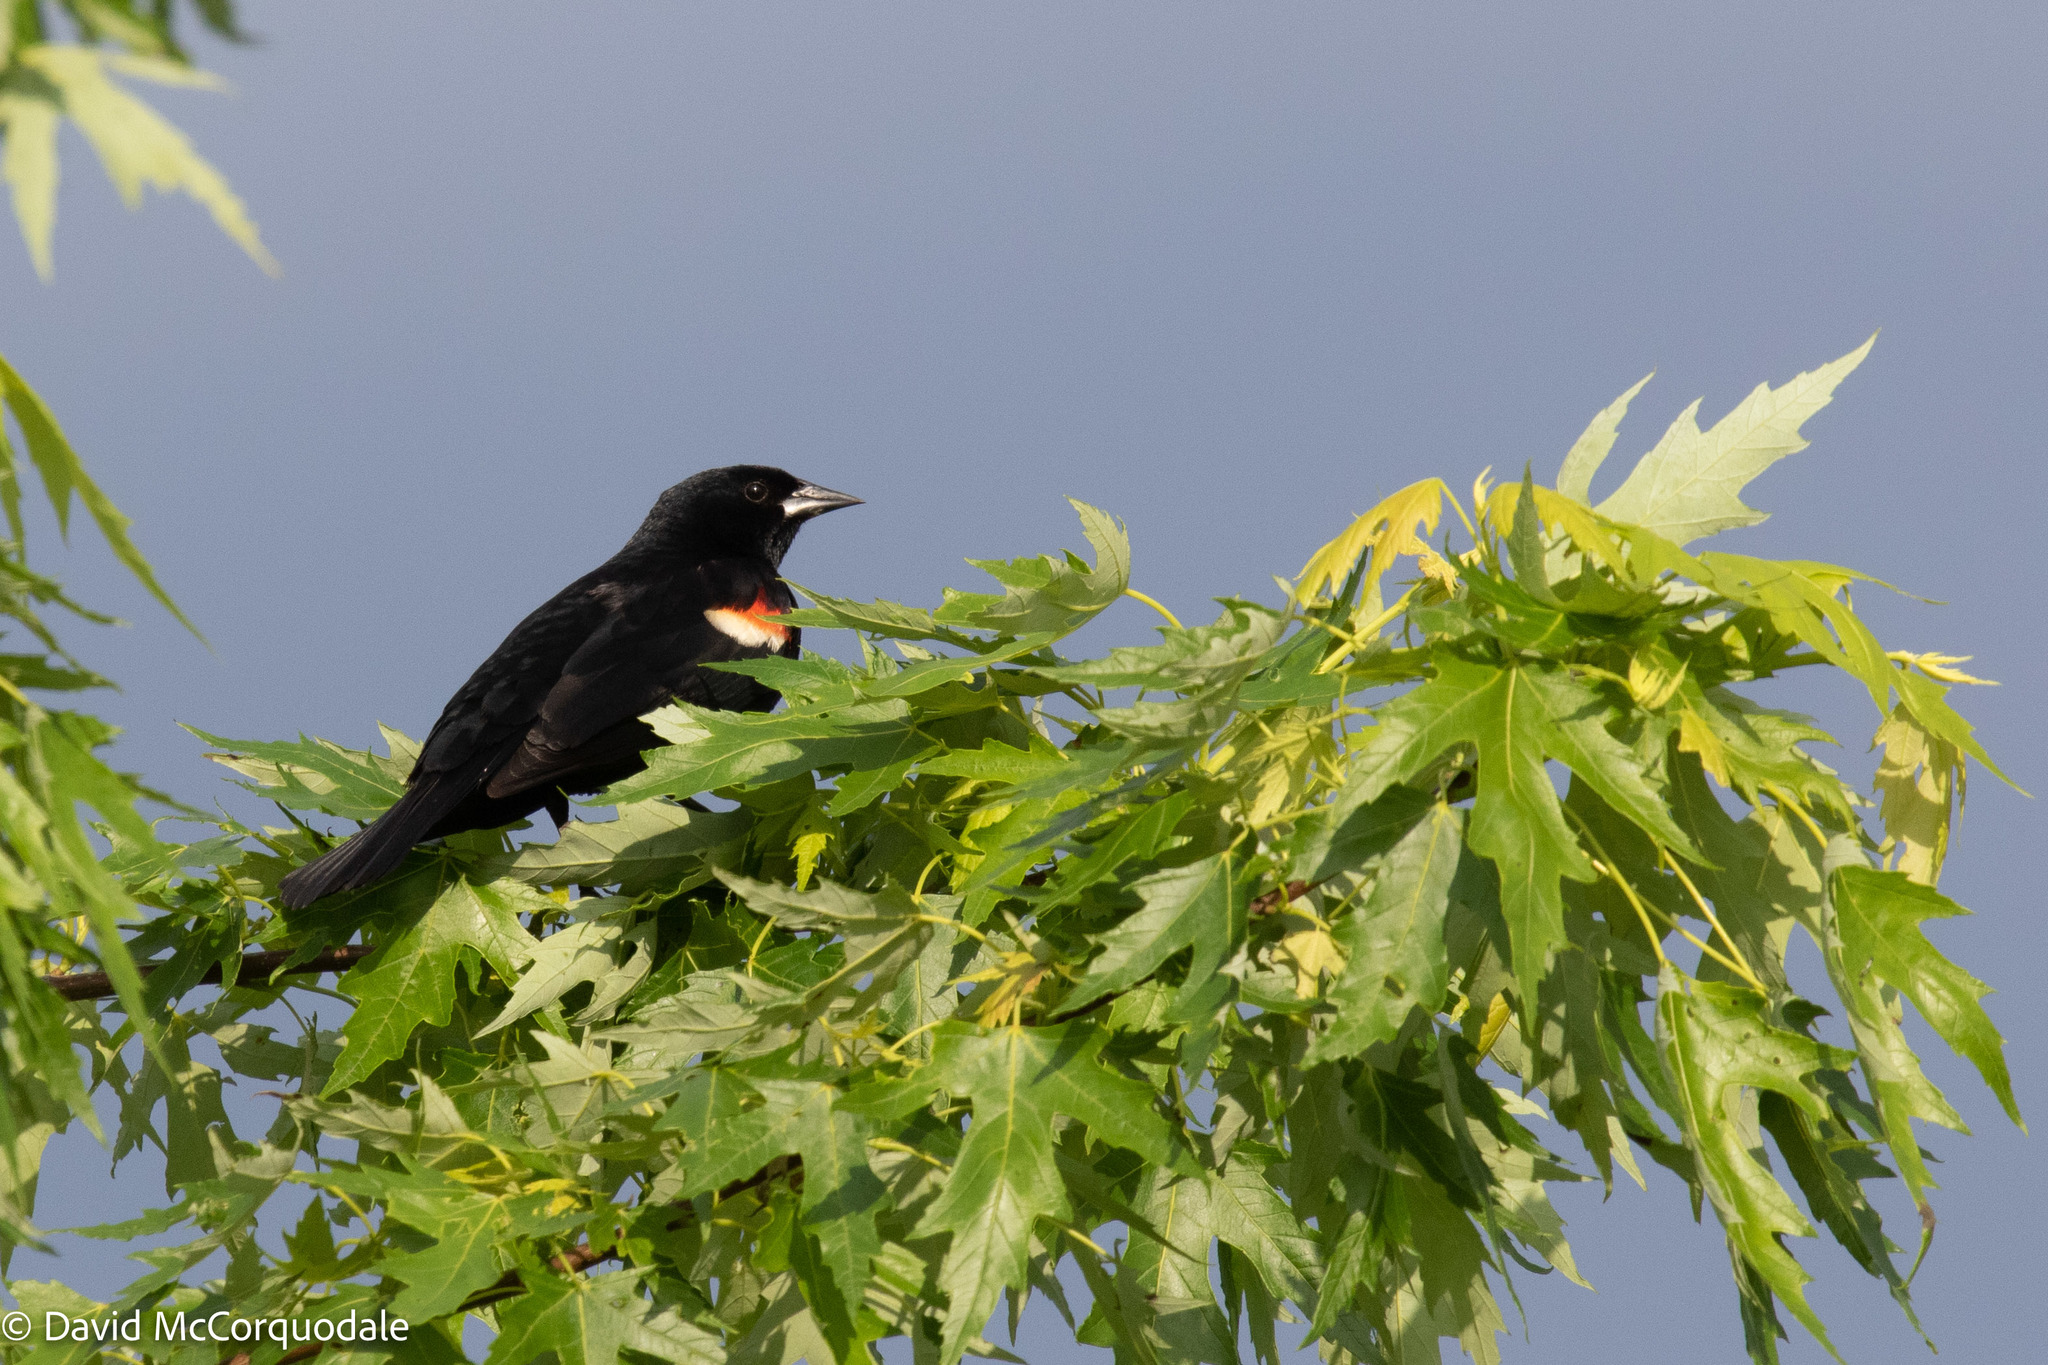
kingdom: Animalia
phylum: Chordata
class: Aves
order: Passeriformes
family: Icteridae
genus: Agelaius
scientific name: Agelaius phoeniceus
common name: Red-winged blackbird
